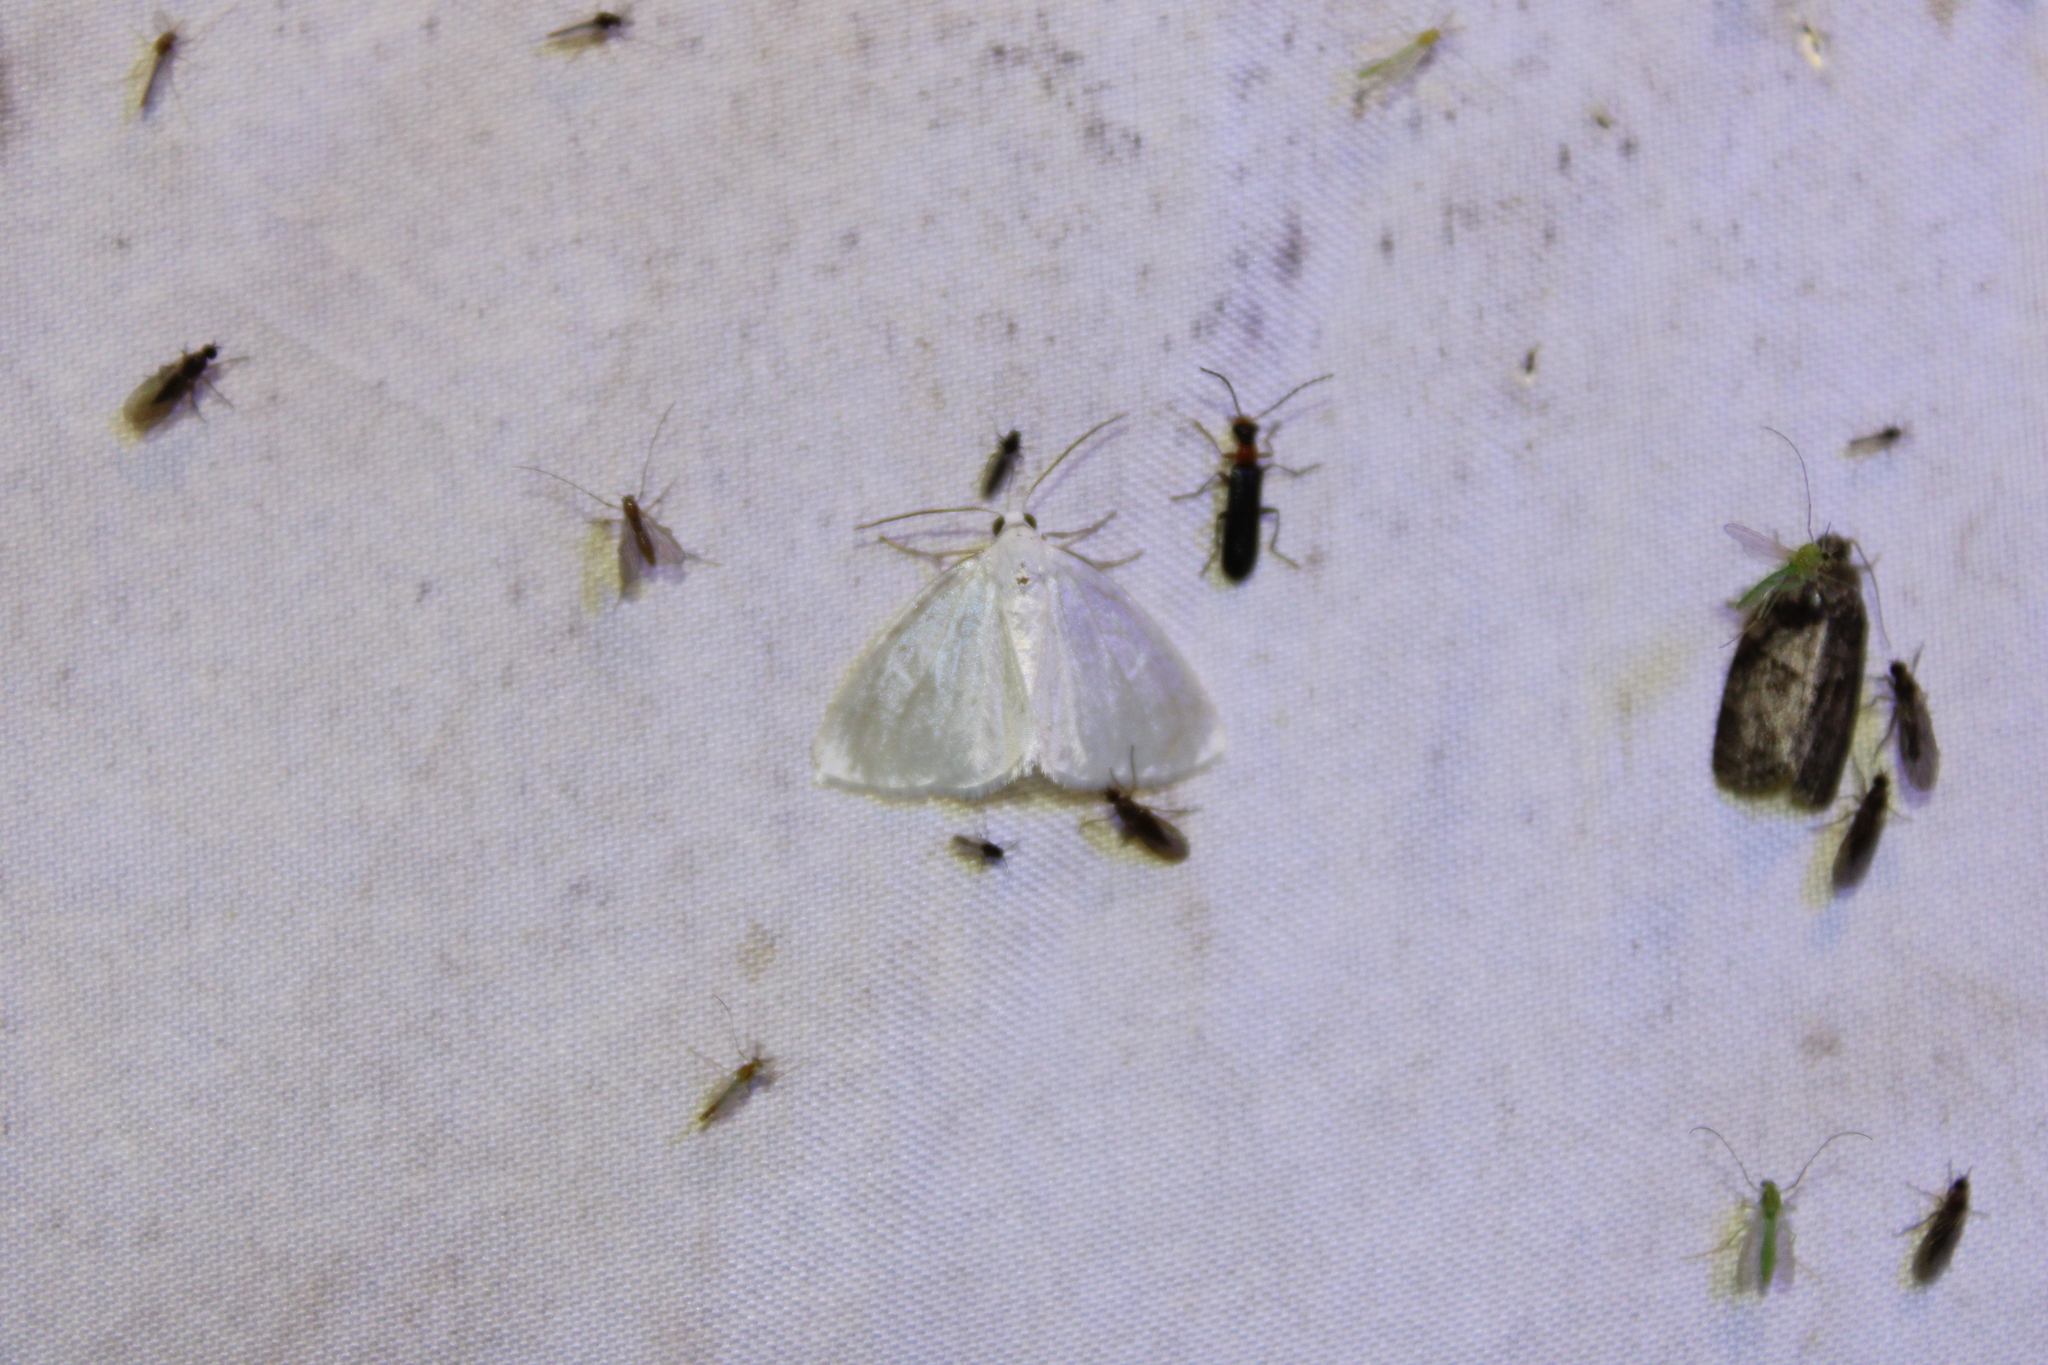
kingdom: Animalia
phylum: Arthropoda
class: Insecta
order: Lepidoptera
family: Geometridae
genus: Lomographa
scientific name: Lomographa vestaliata
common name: White spring moth
